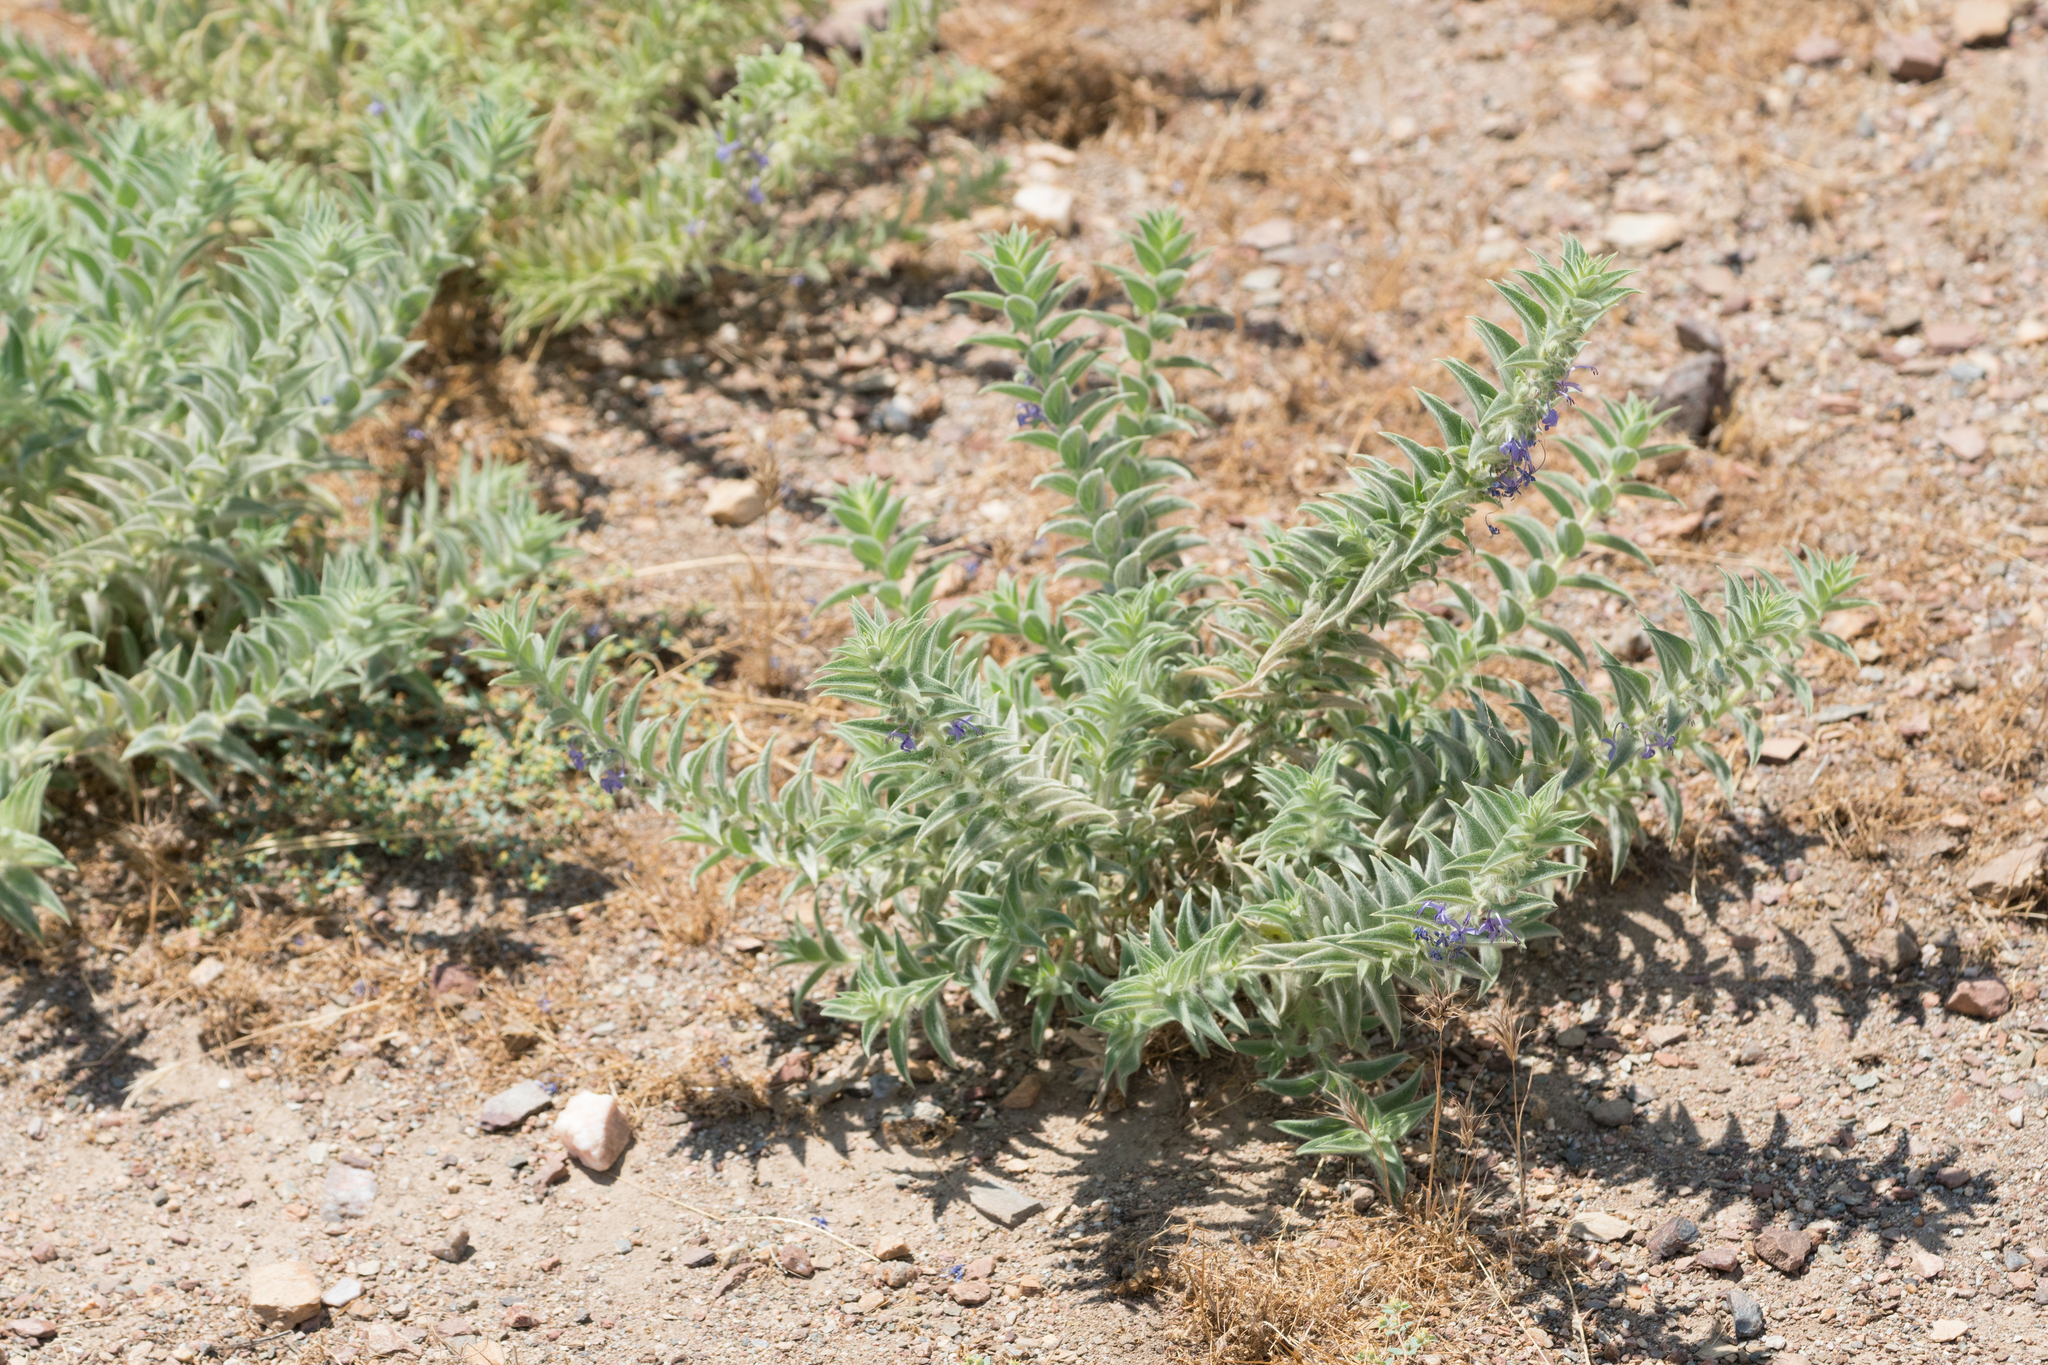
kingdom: Plantae
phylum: Tracheophyta
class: Magnoliopsida
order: Lamiales
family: Lamiaceae
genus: Trichostema
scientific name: Trichostema lanceolatum
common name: Vinegar-weed
